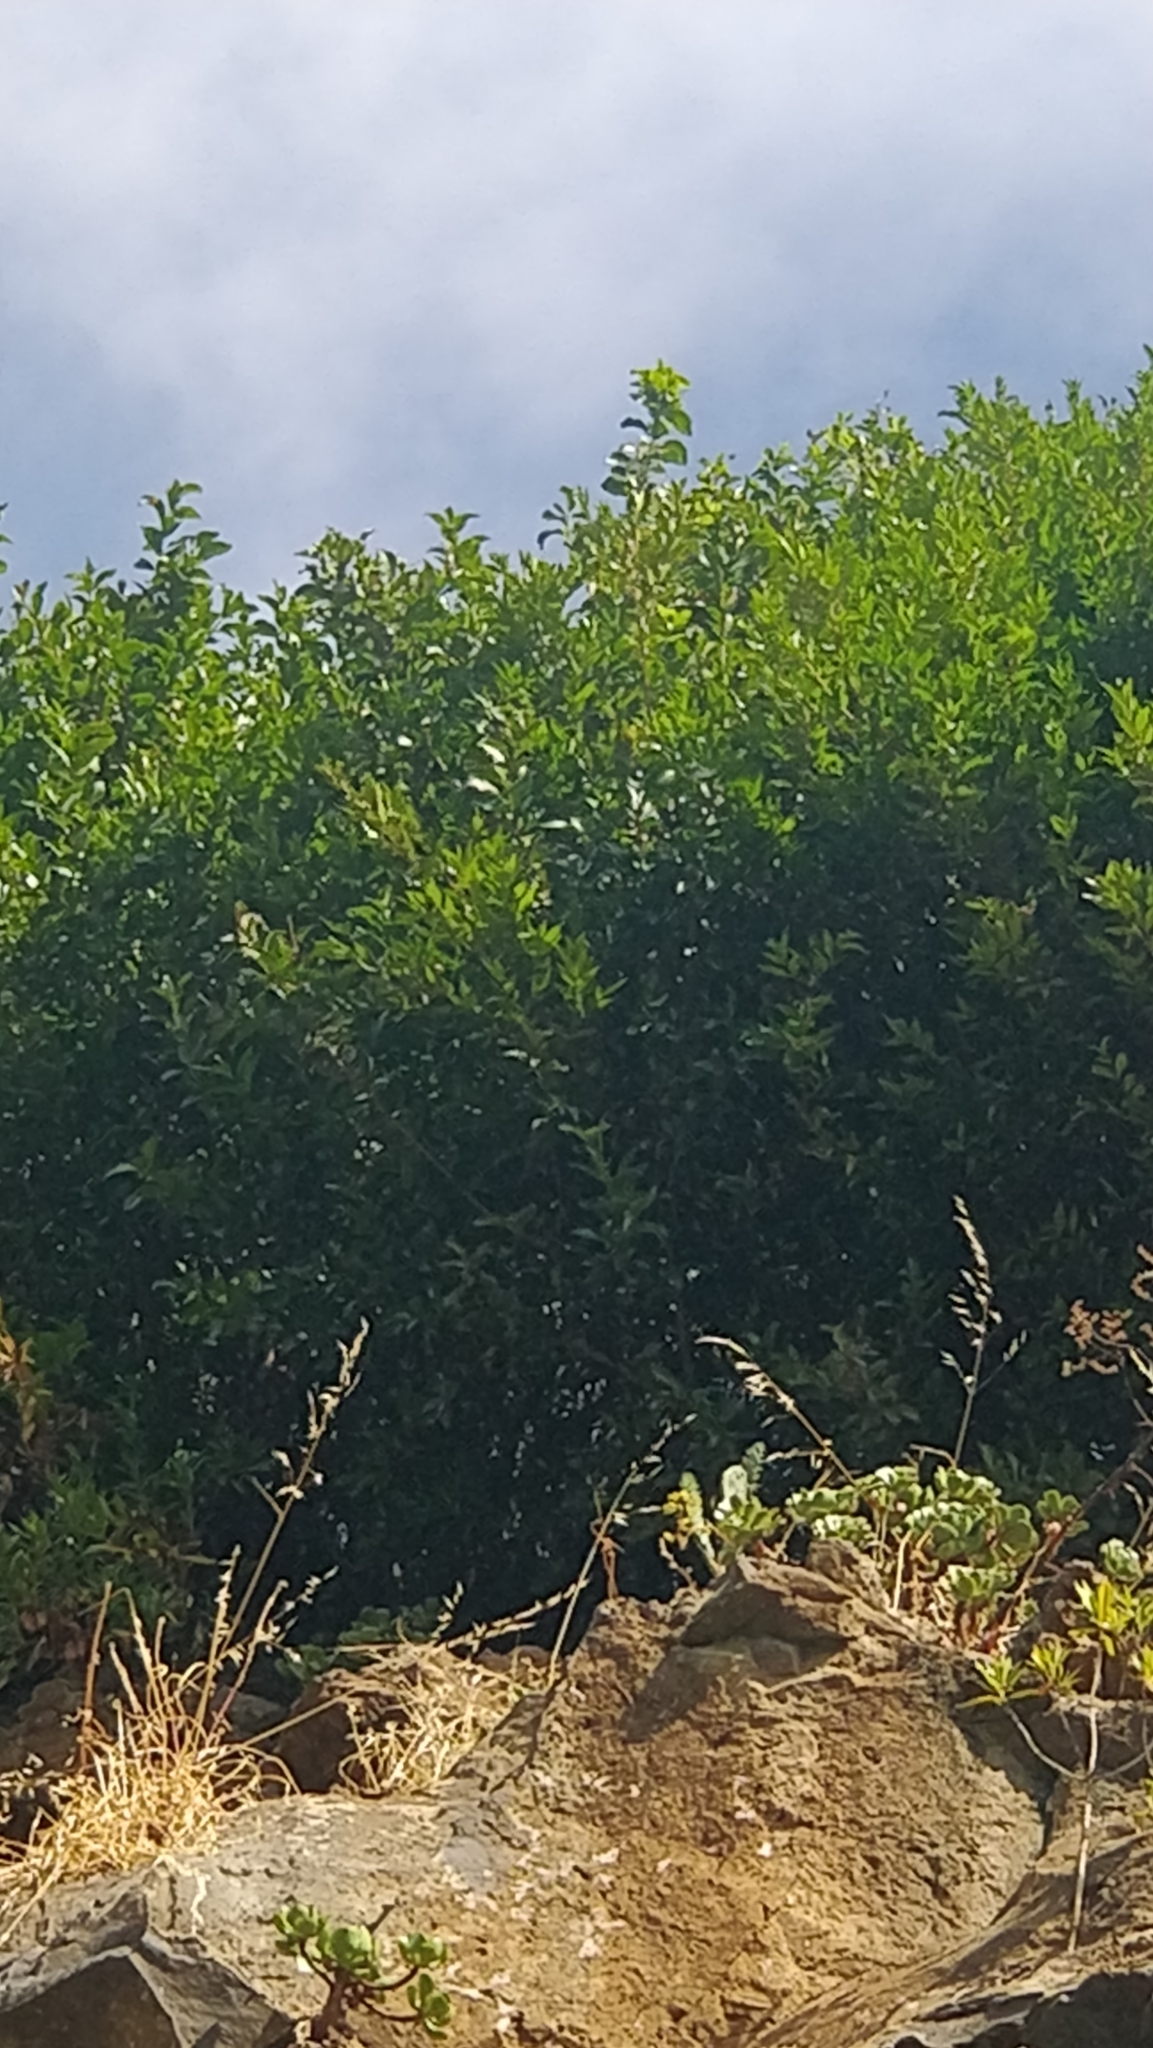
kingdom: Plantae
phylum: Tracheophyta
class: Magnoliopsida
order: Myrtales
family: Myrtaceae
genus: Myrtus
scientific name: Myrtus communis
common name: Myrtle
